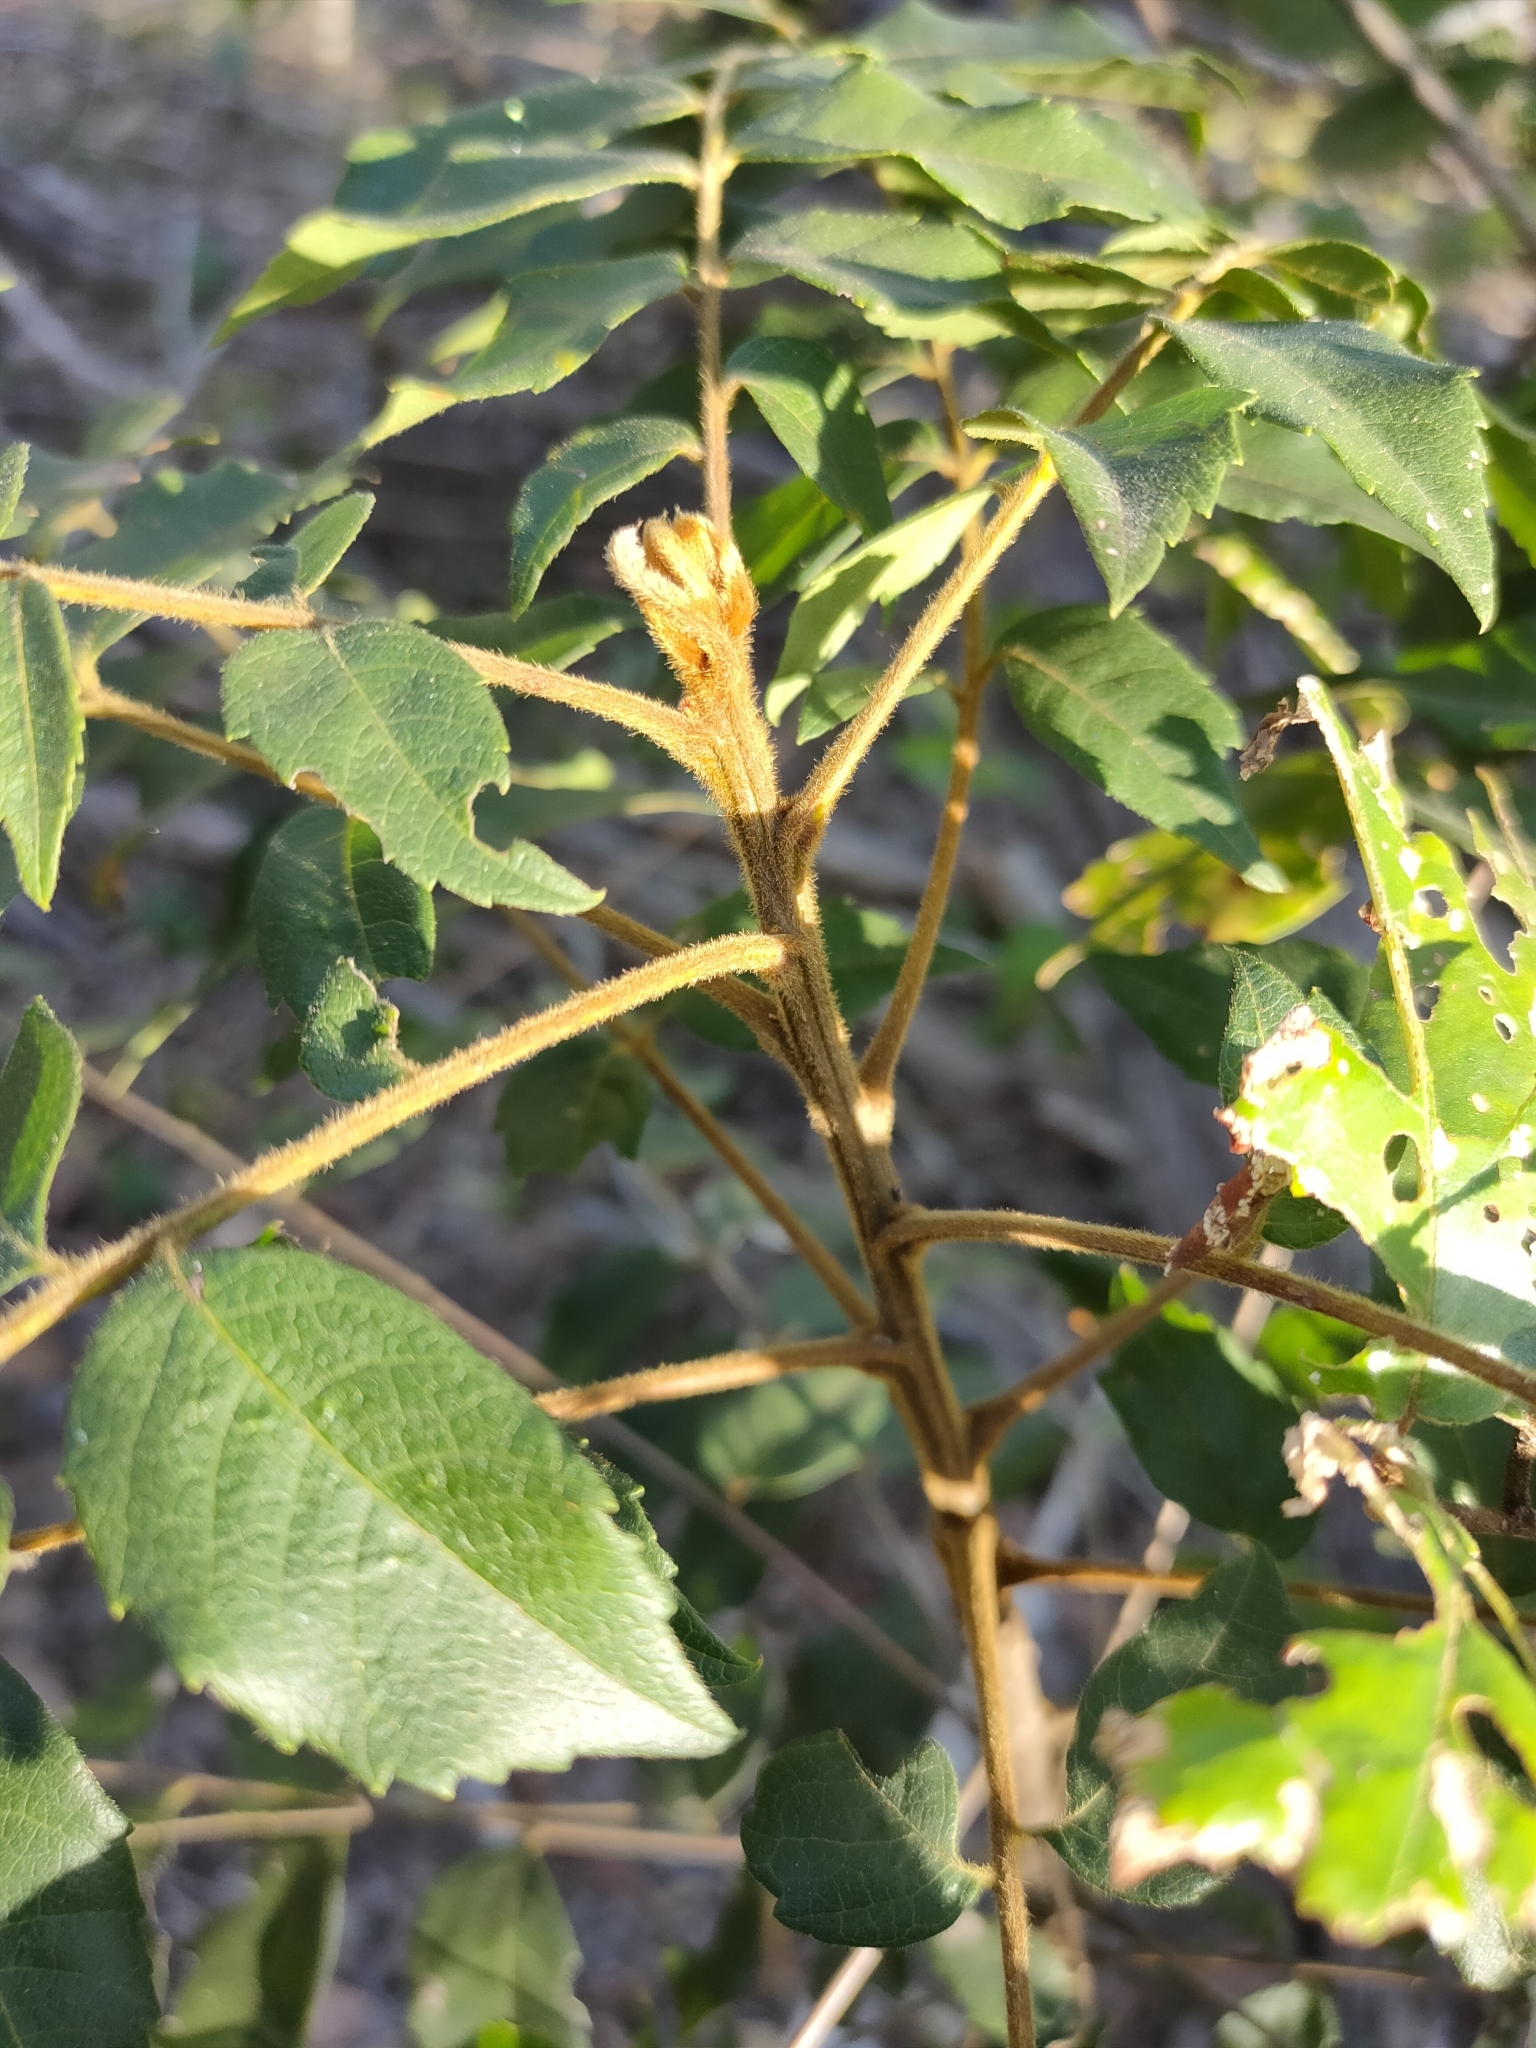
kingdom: Plantae
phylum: Tracheophyta
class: Magnoliopsida
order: Sapindales
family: Sapindaceae
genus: Jagera
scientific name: Jagera pseudorhus
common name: Fern-leaf-tamarind
